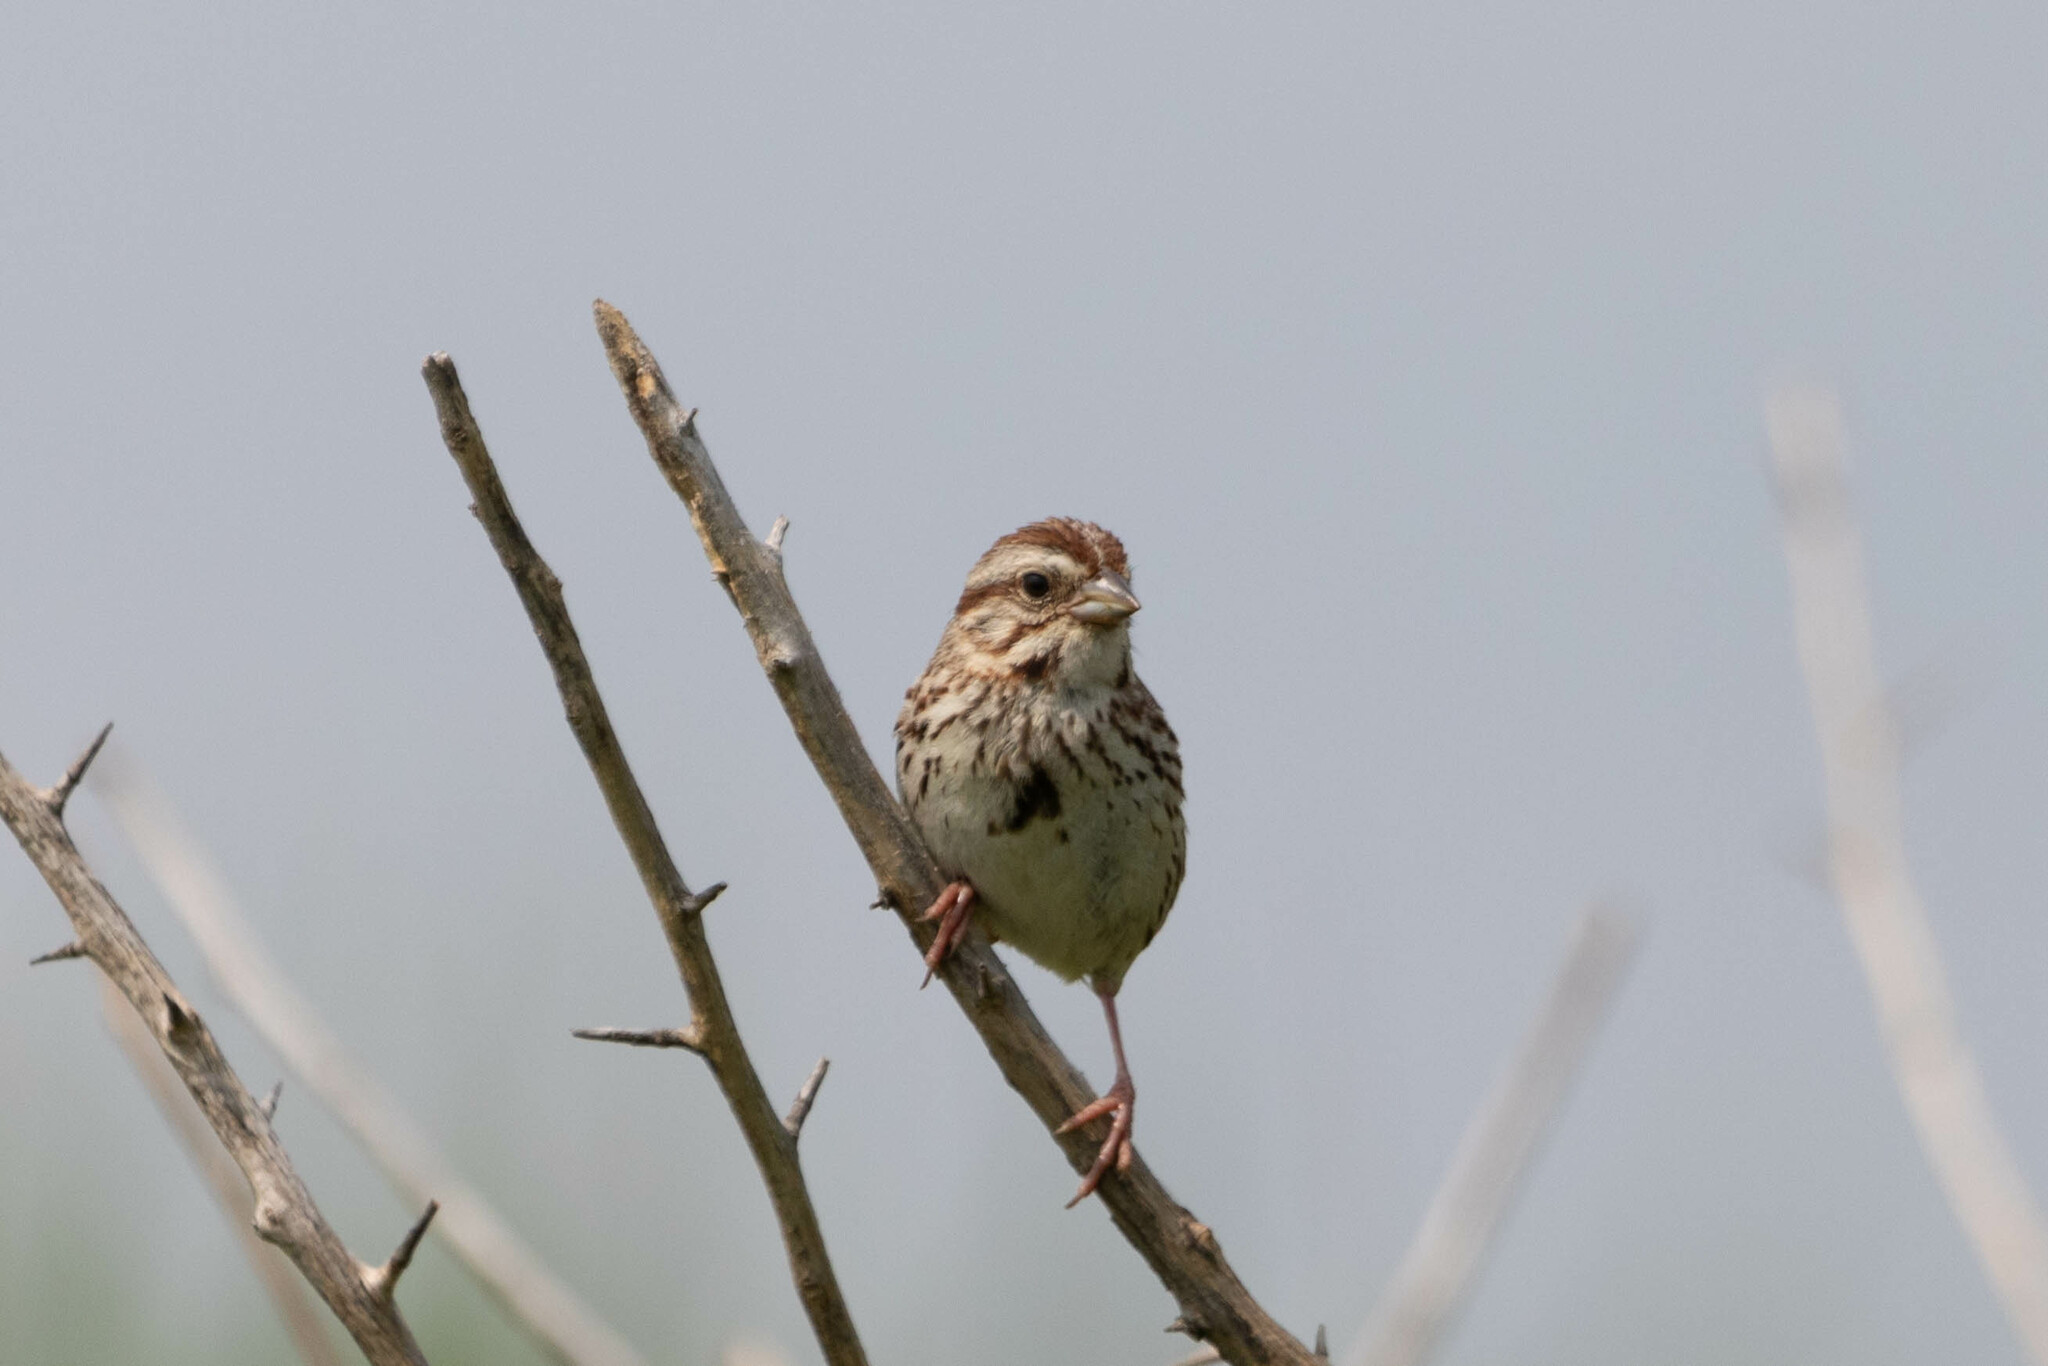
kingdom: Animalia
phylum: Chordata
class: Aves
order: Passeriformes
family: Passerellidae
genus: Melospiza
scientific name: Melospiza melodia
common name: Song sparrow
